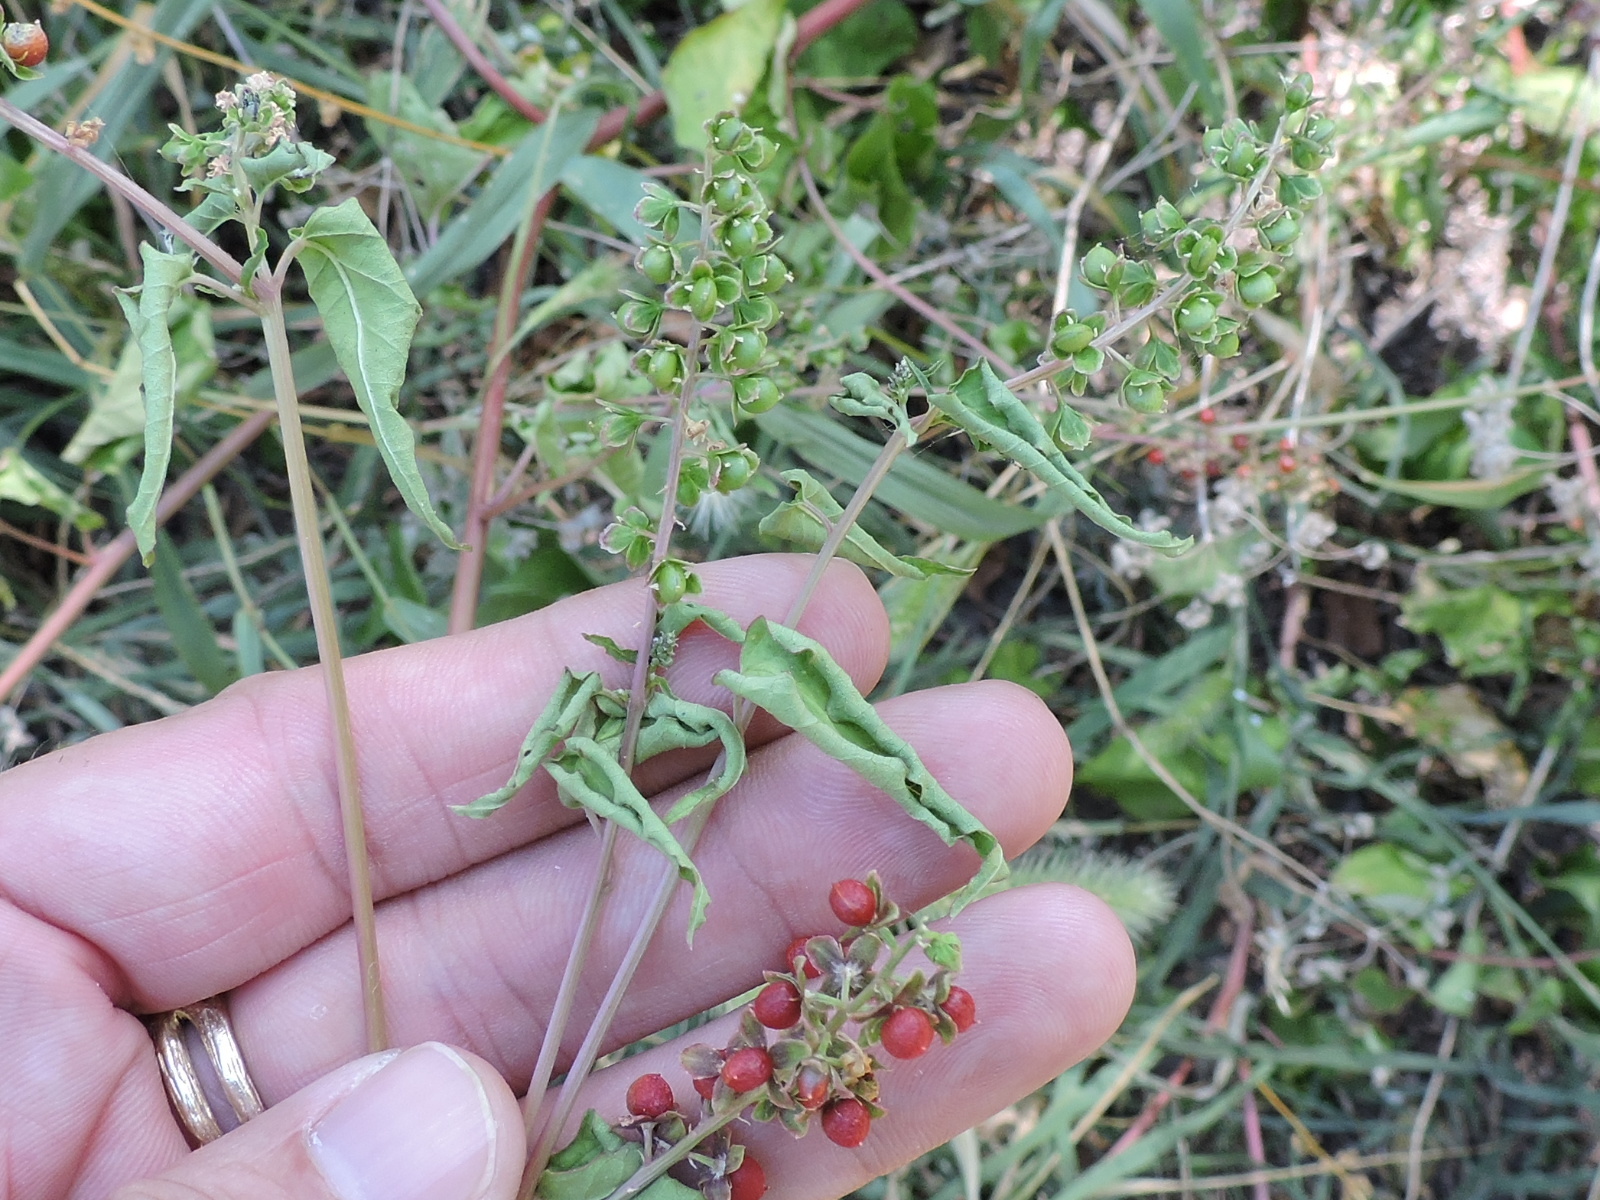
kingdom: Plantae
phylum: Tracheophyta
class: Magnoliopsida
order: Caryophyllales
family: Phytolaccaceae
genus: Rivina
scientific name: Rivina humilis
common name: Rougeplant
